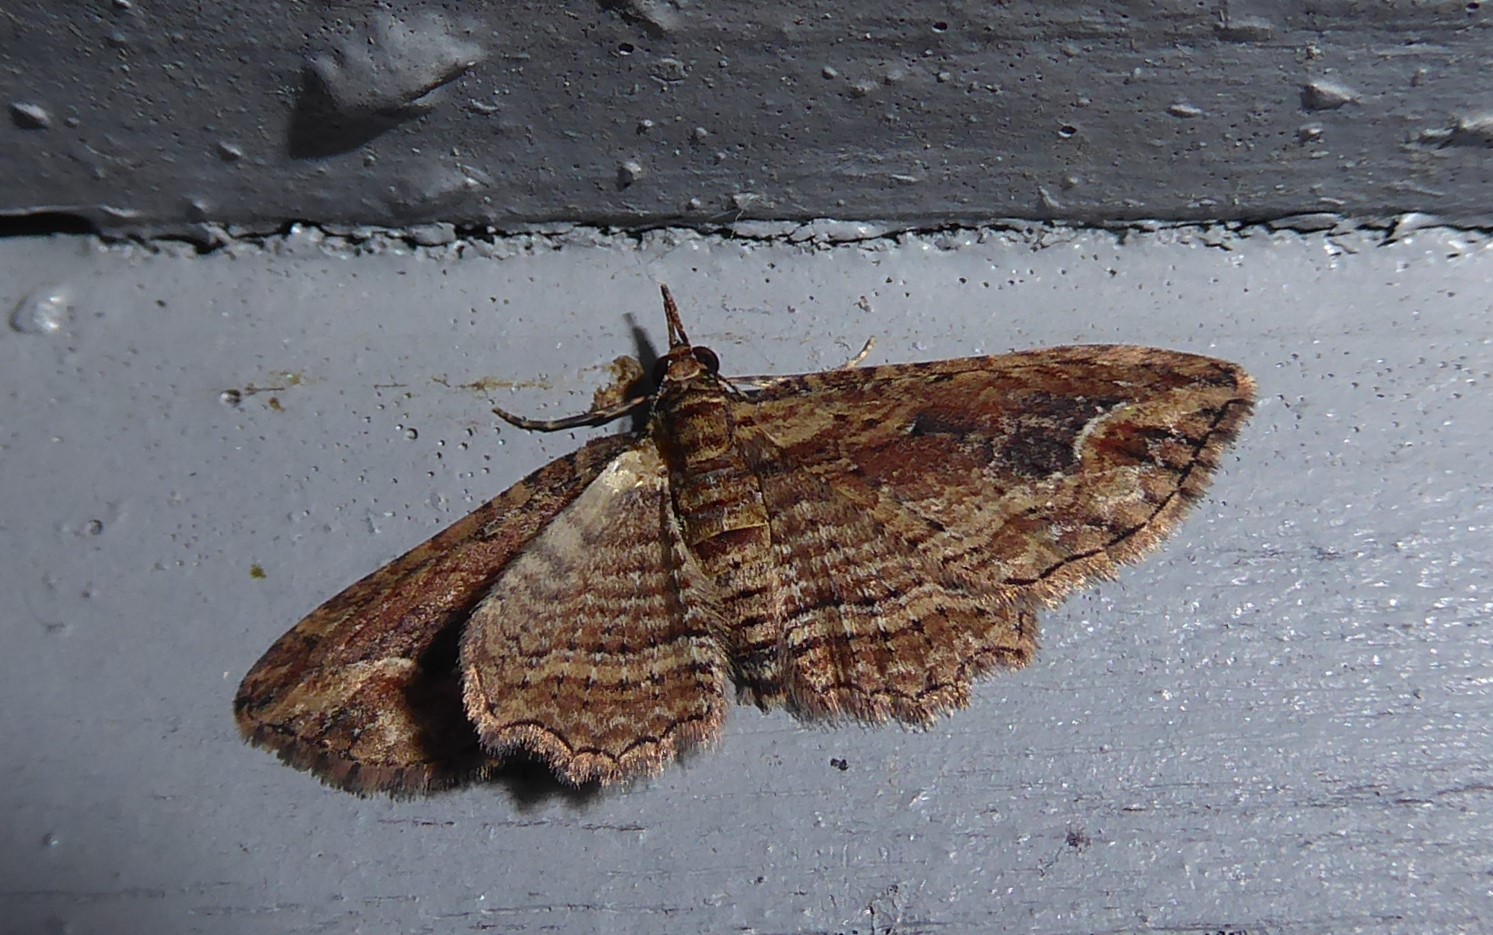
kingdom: Animalia
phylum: Arthropoda
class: Insecta
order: Lepidoptera
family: Geometridae
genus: Chloroclystis
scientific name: Chloroclystis filata
